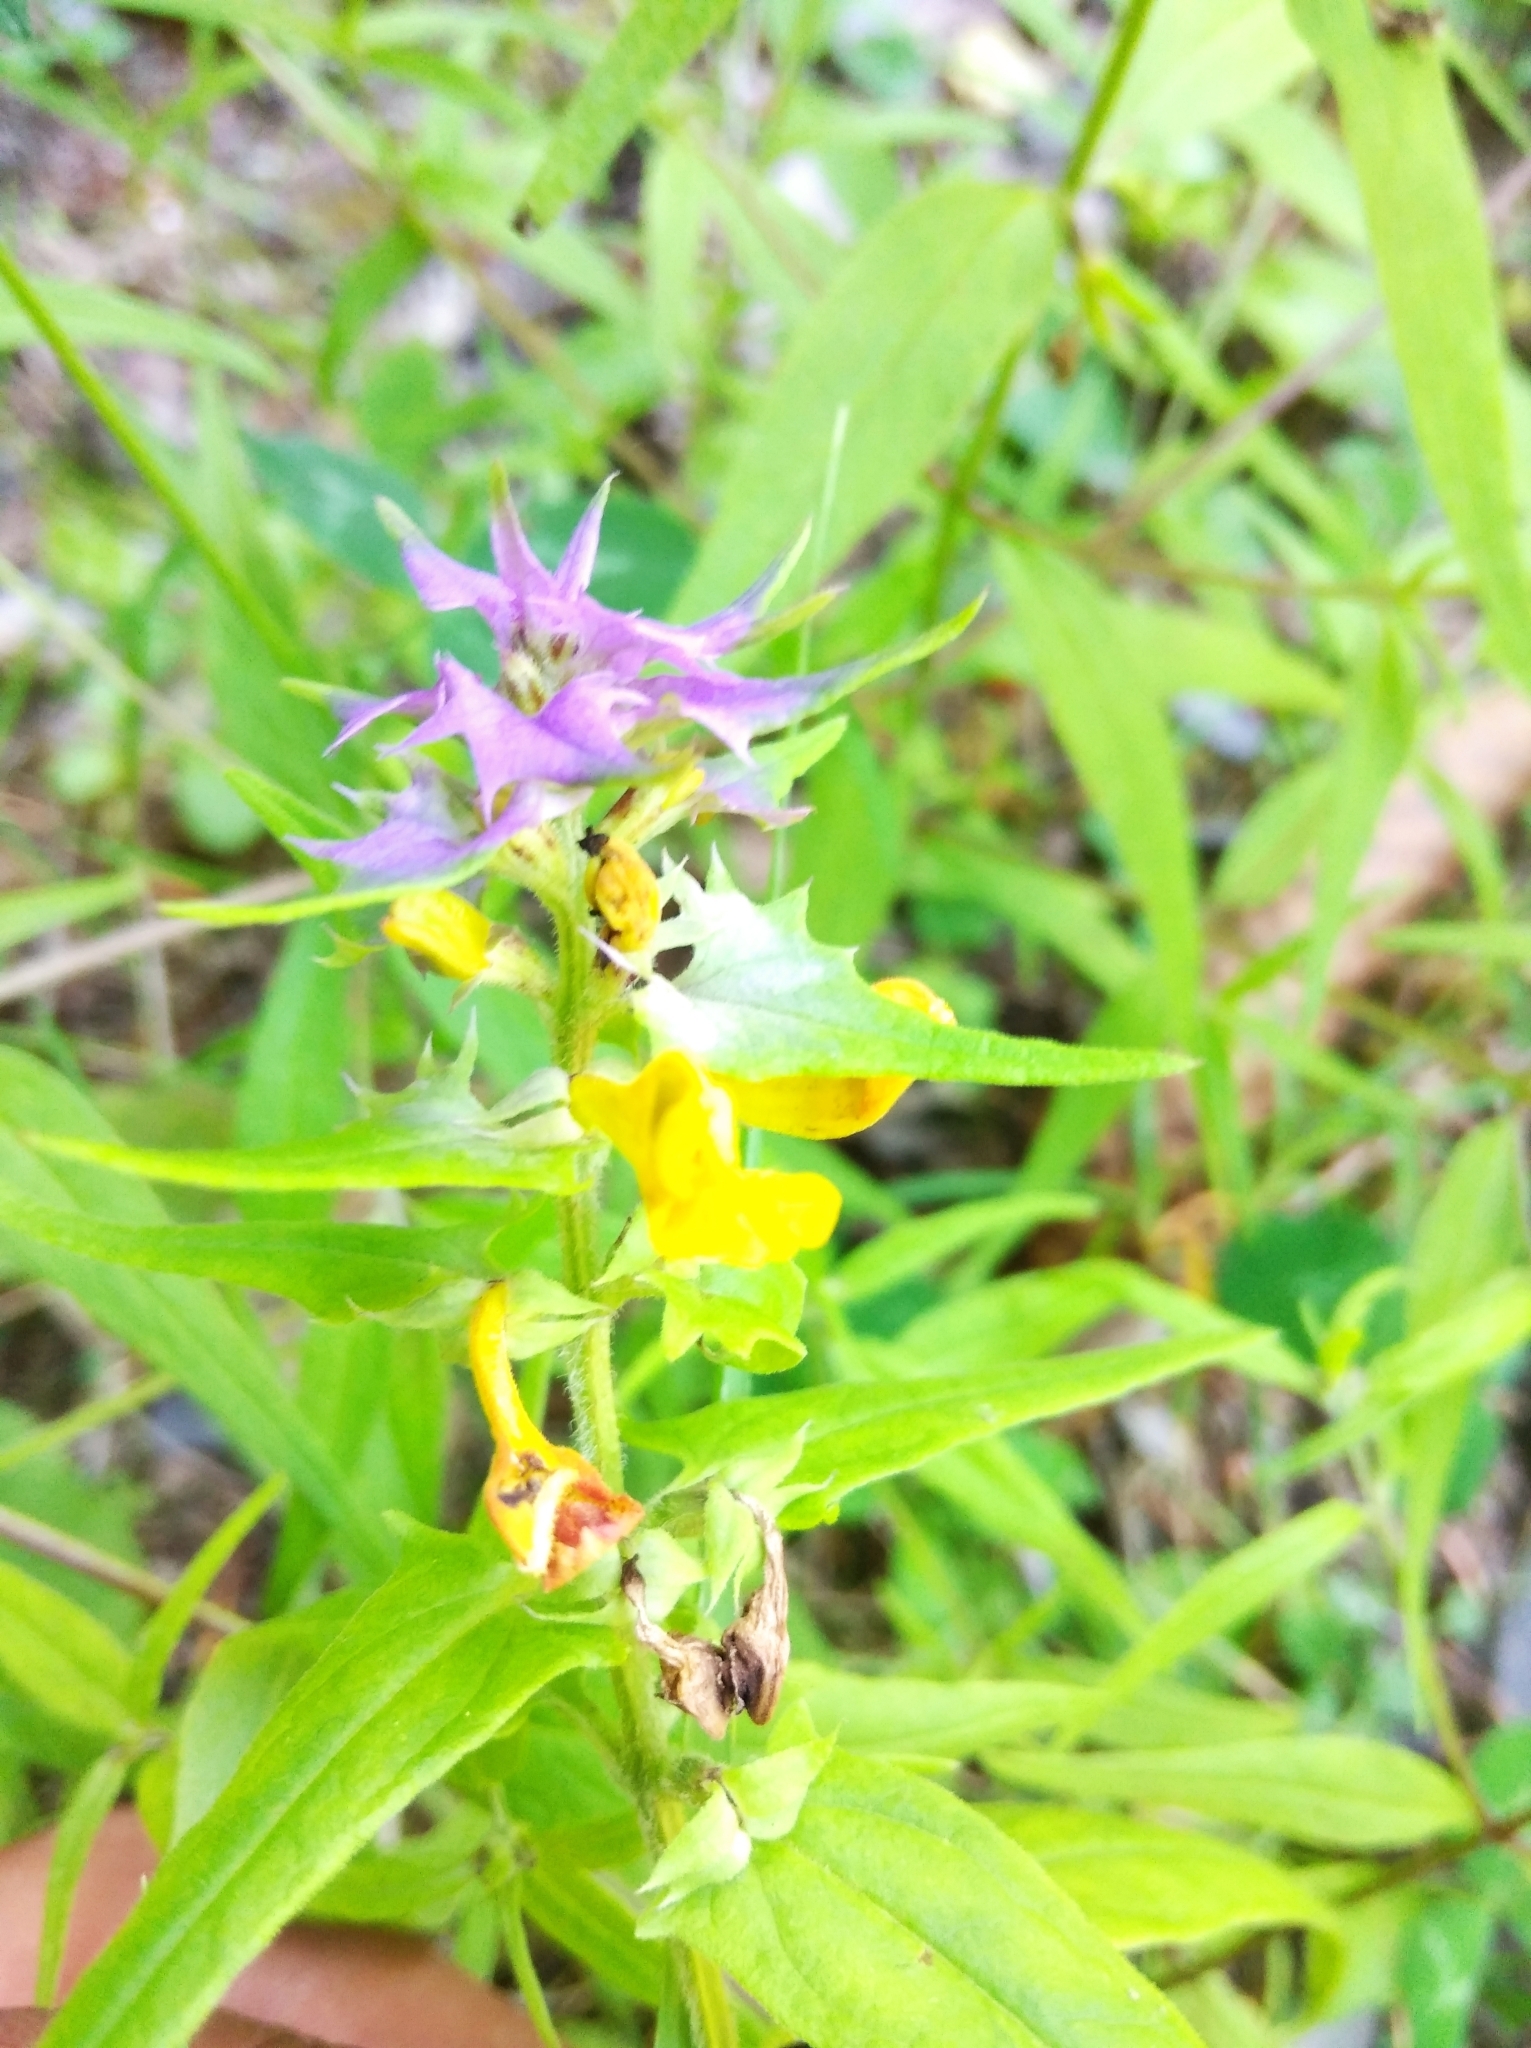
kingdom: Plantae
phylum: Tracheophyta
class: Magnoliopsida
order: Lamiales
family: Orobanchaceae
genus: Melampyrum
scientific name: Melampyrum catalaunicum
